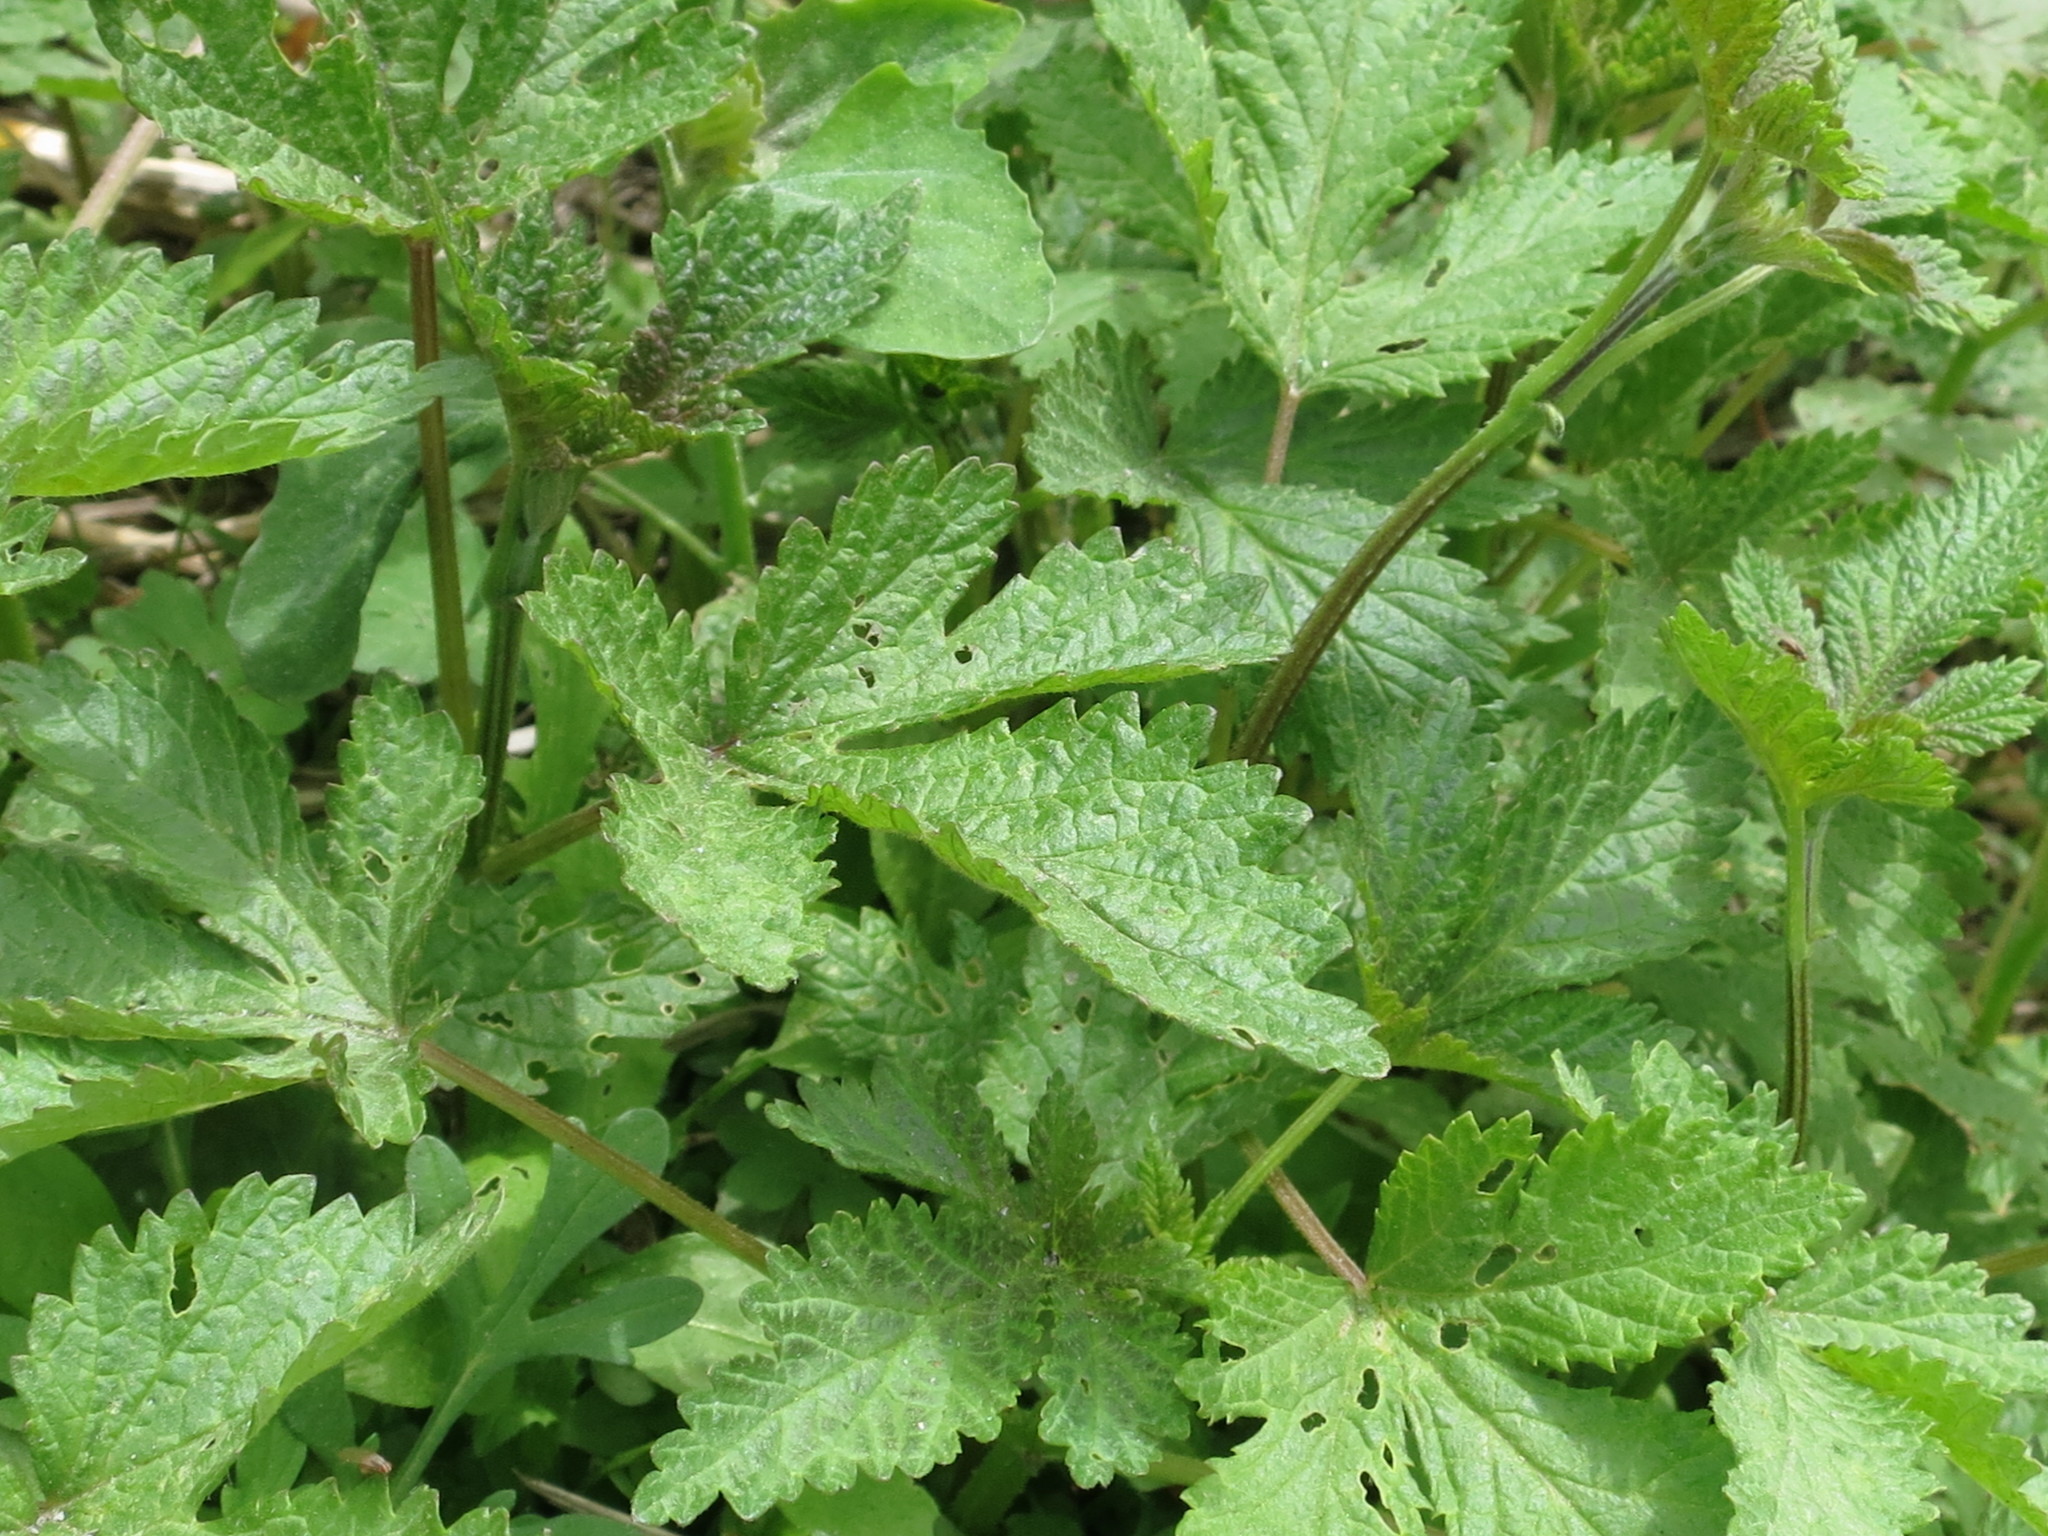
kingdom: Plantae
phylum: Tracheophyta
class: Magnoliopsida
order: Rosales
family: Cannabaceae
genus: Humulus
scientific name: Humulus scandens
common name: Japanese hop
